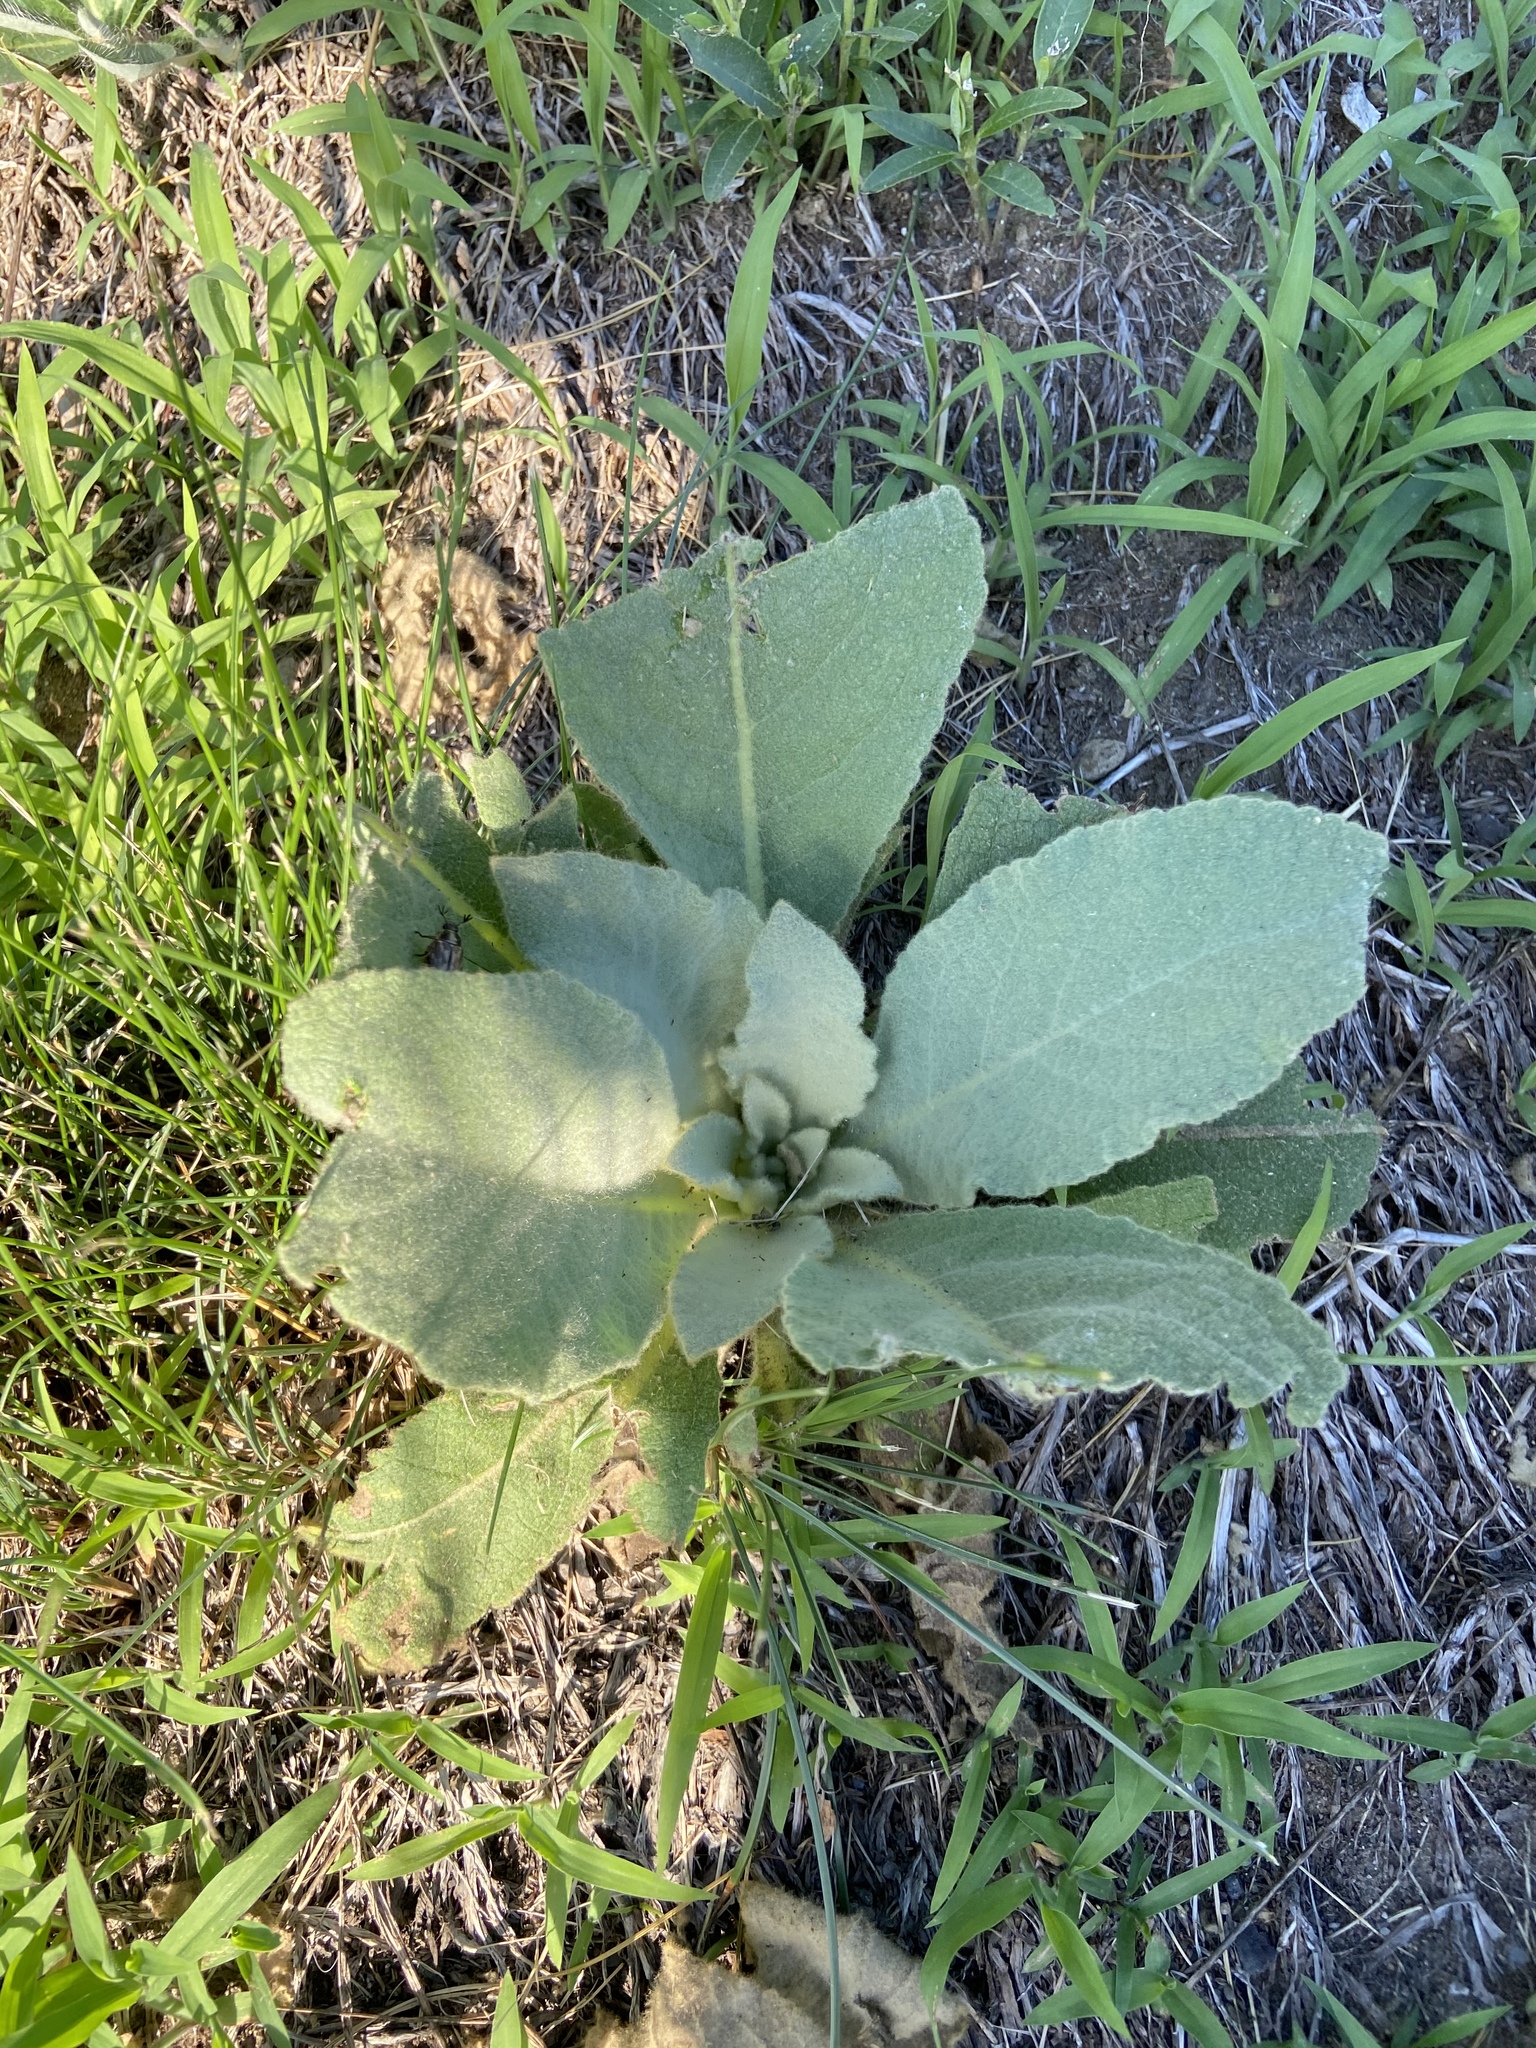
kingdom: Plantae
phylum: Tracheophyta
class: Magnoliopsida
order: Lamiales
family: Scrophulariaceae
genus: Verbascum
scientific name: Verbascum thapsus
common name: Common mullein
